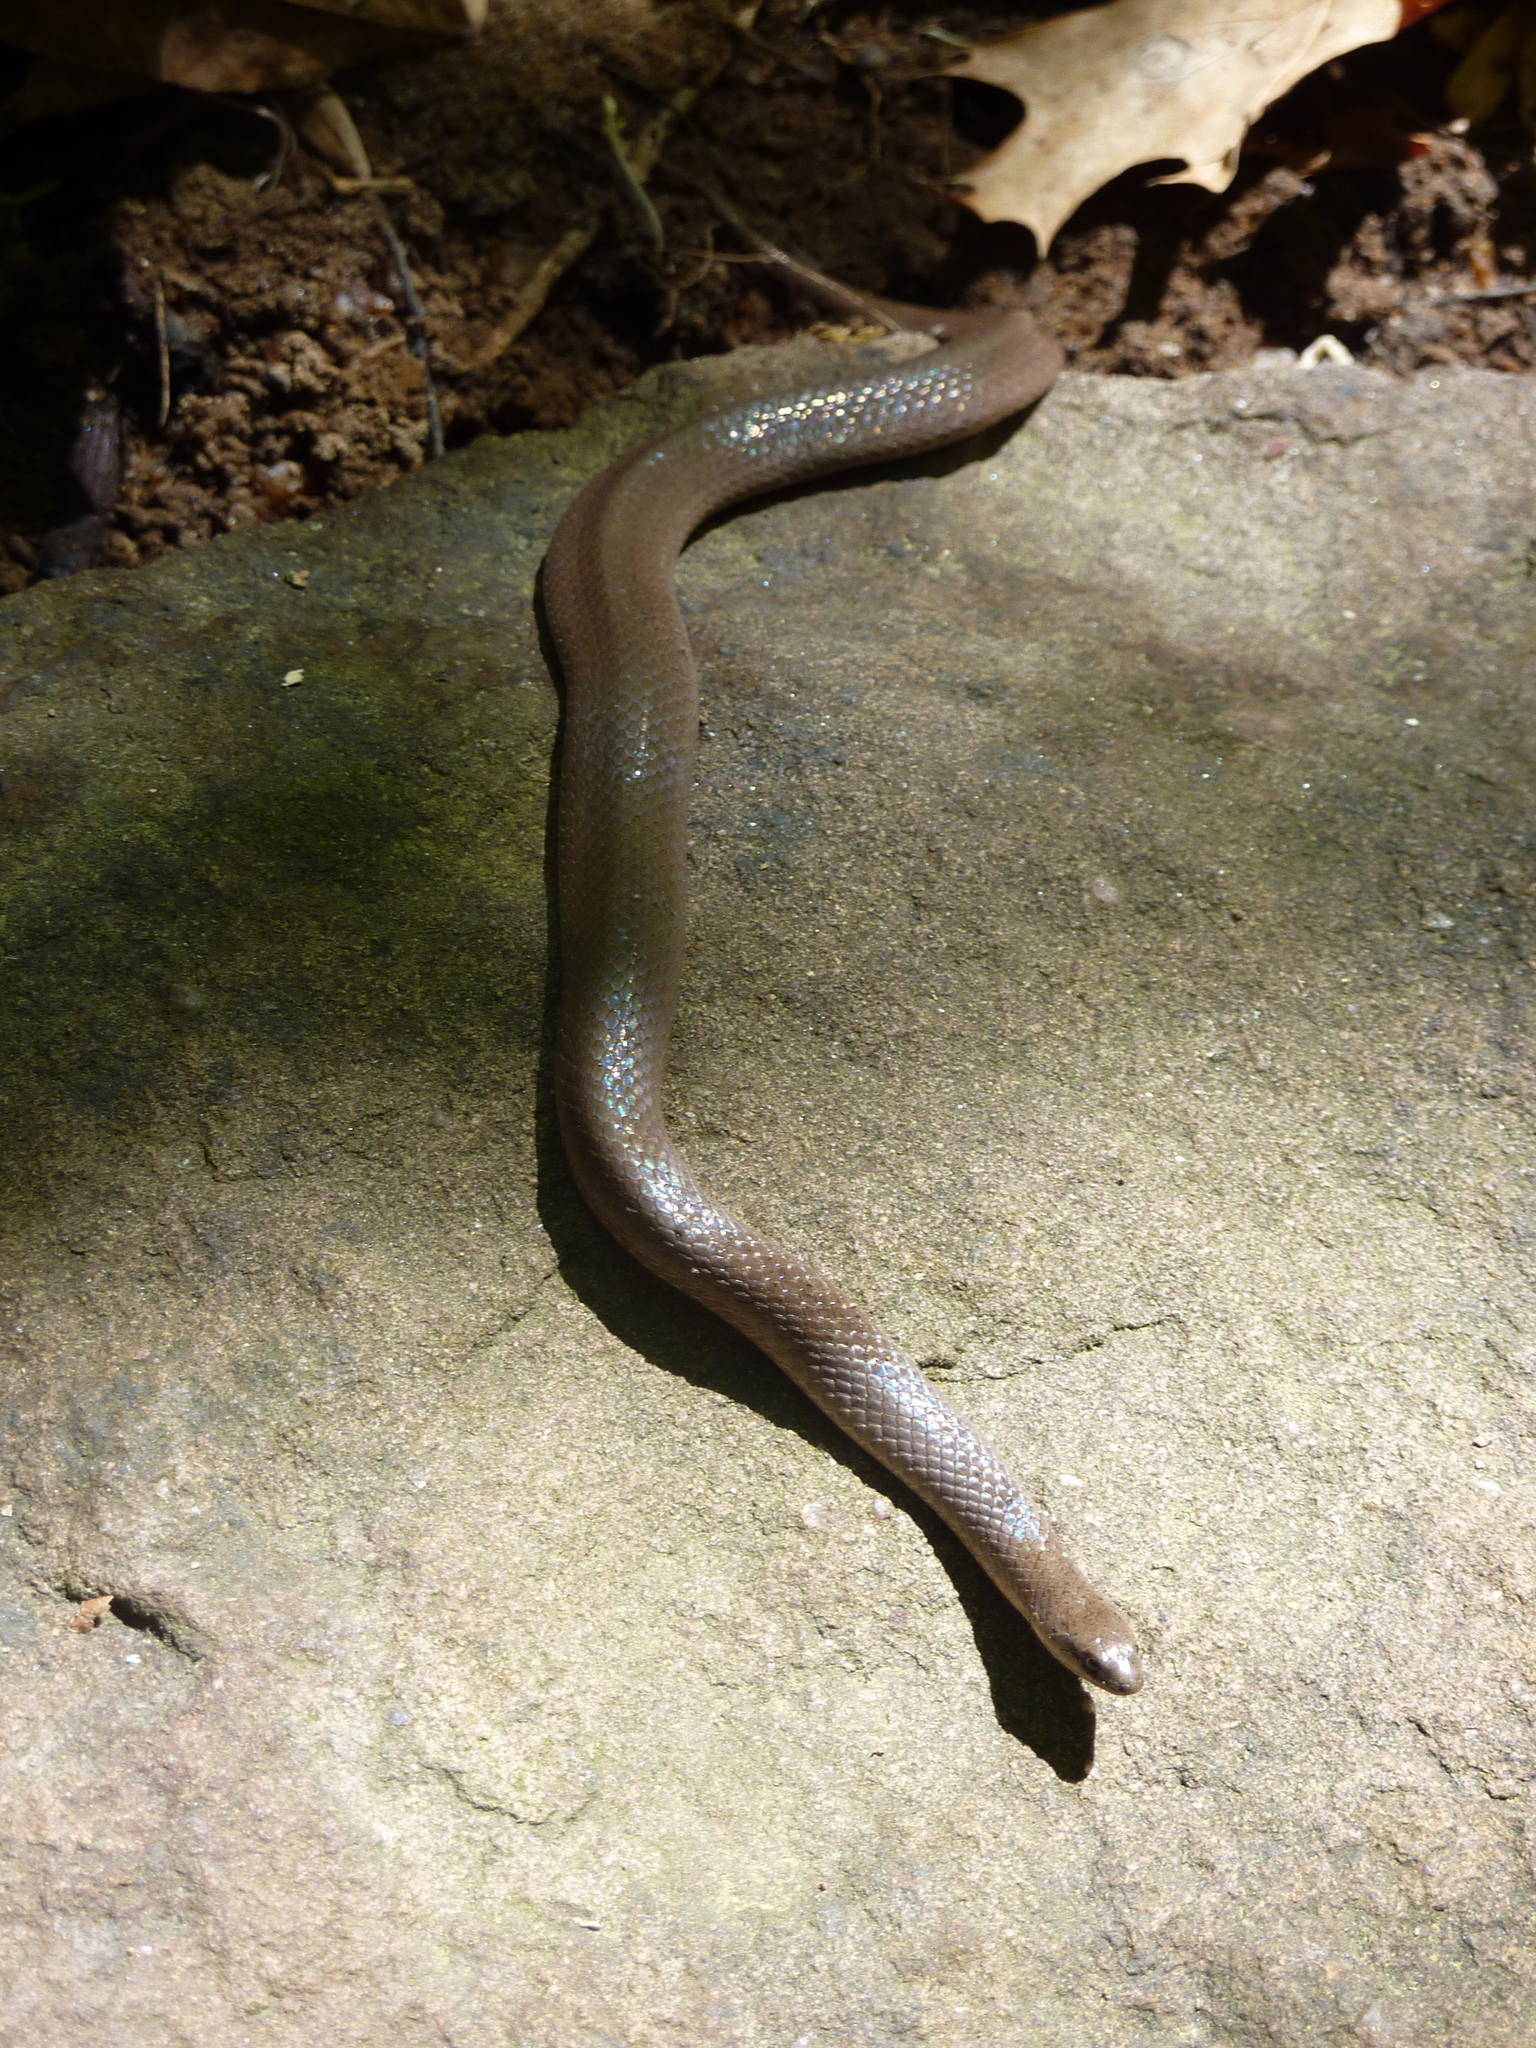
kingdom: Animalia
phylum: Chordata
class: Squamata
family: Colubridae
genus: Virginia
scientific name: Virginia valeriae
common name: Smooth earth snake
